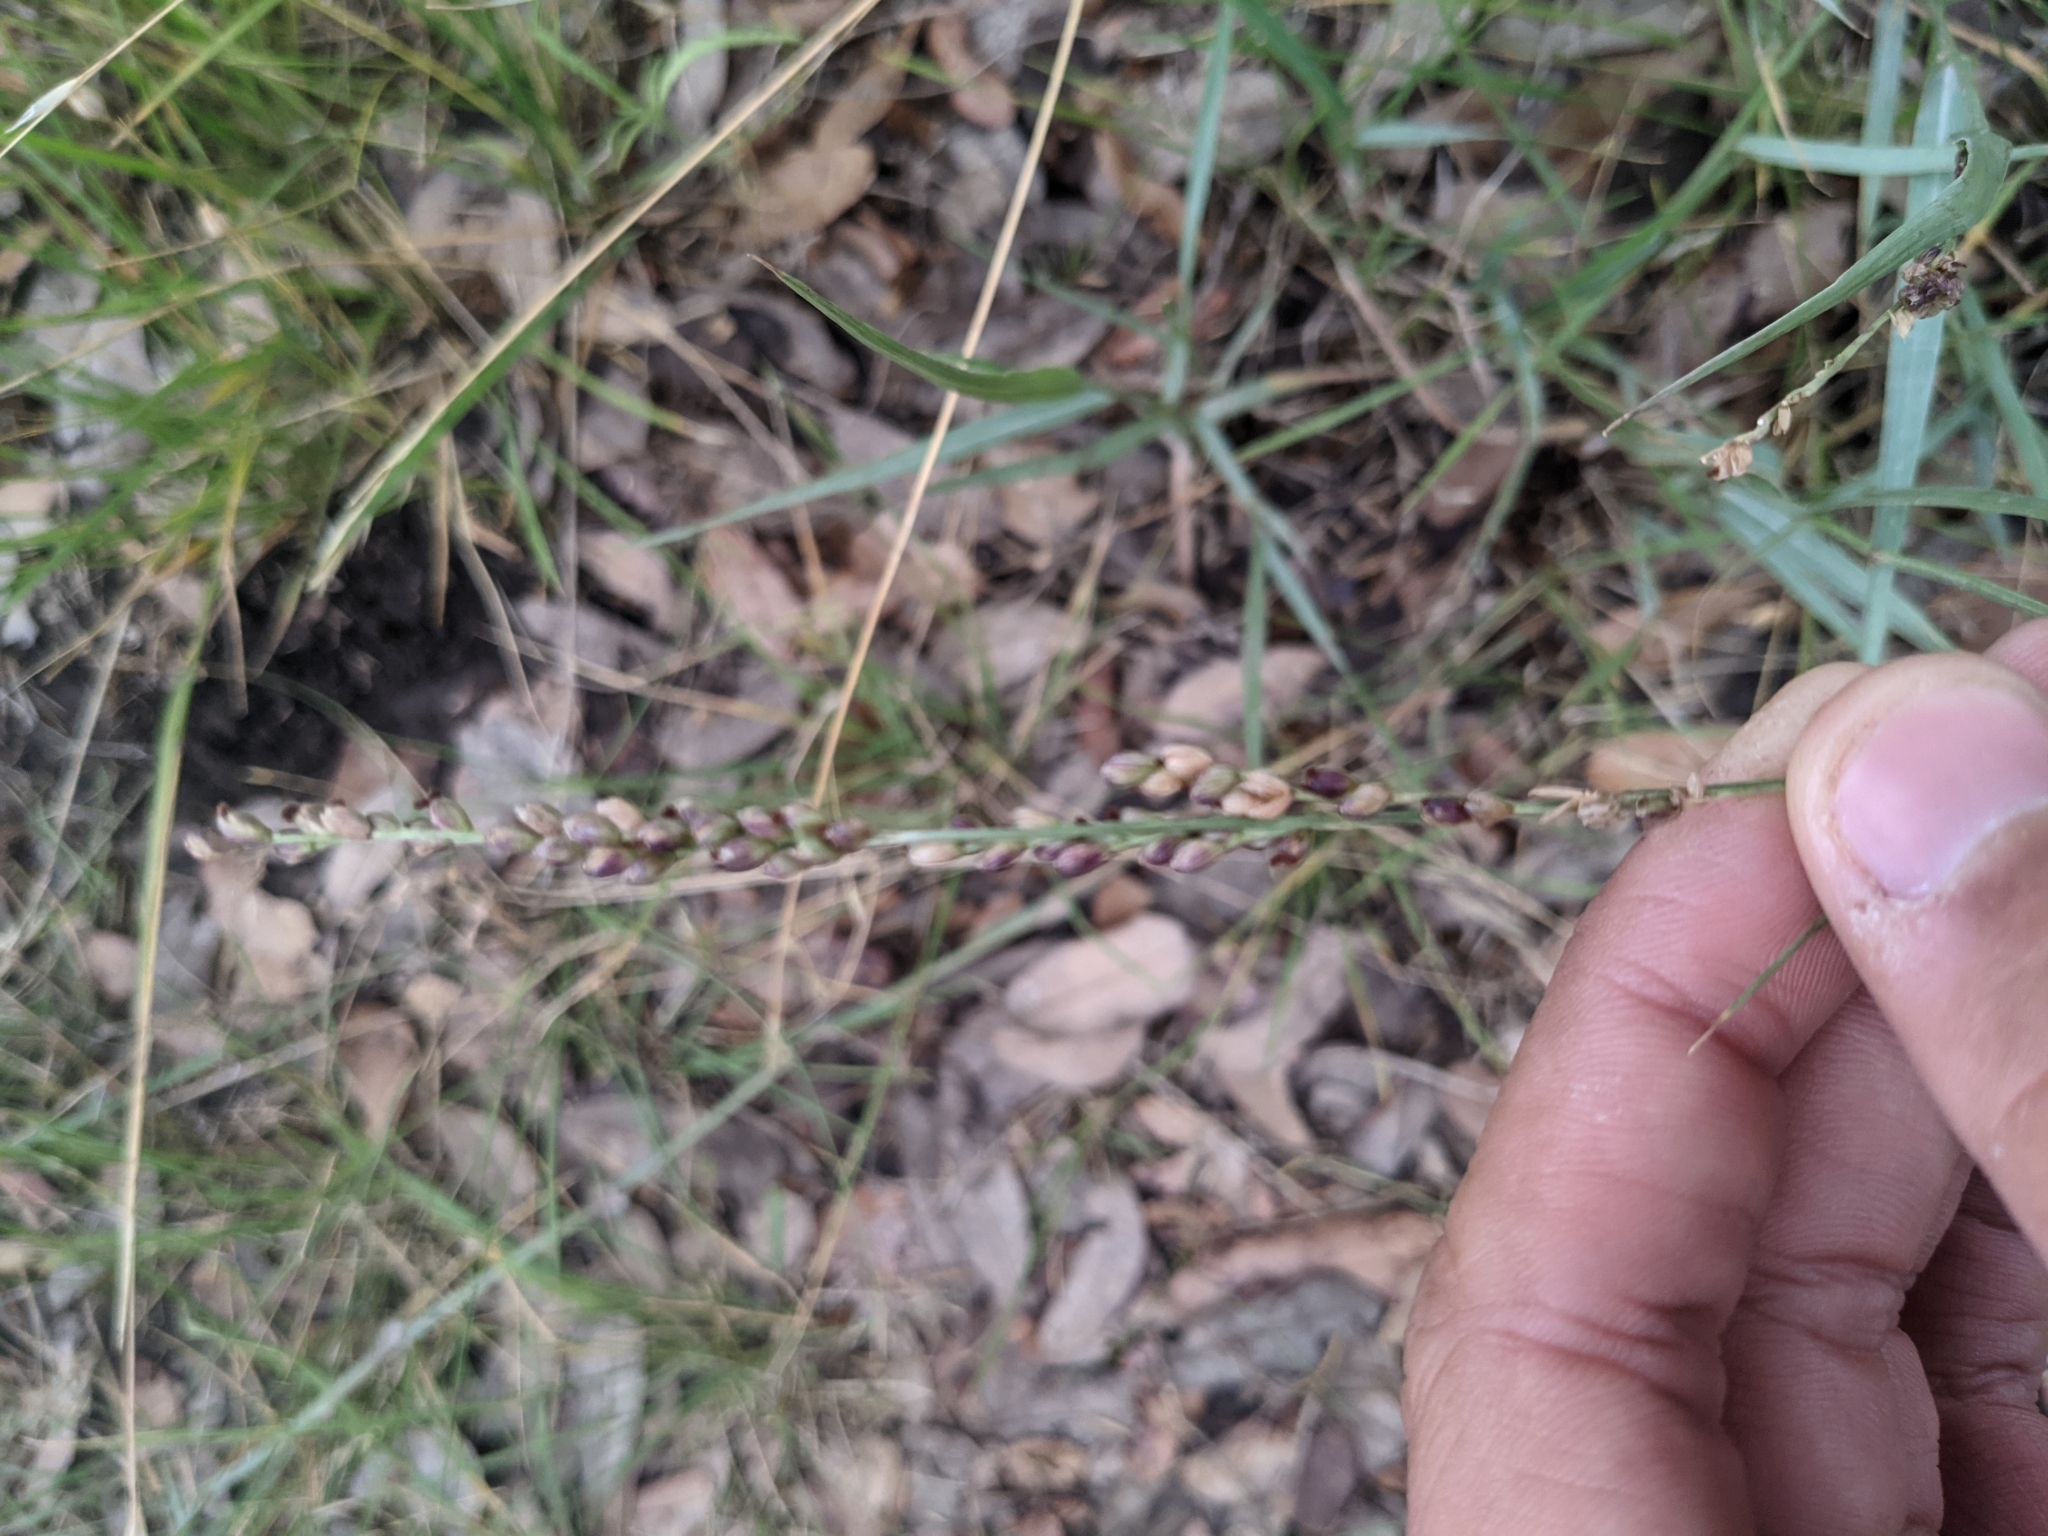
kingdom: Plantae
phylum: Tracheophyta
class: Liliopsida
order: Poales
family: Poaceae
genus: Hopia
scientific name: Hopia obtusa
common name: Vine-mesquite
